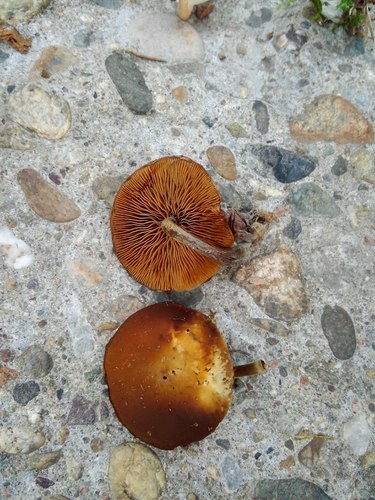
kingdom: Fungi
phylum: Basidiomycota
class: Agaricomycetes
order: Agaricales
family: Strophariaceae
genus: Pholiota
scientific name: Pholiota lignicola
